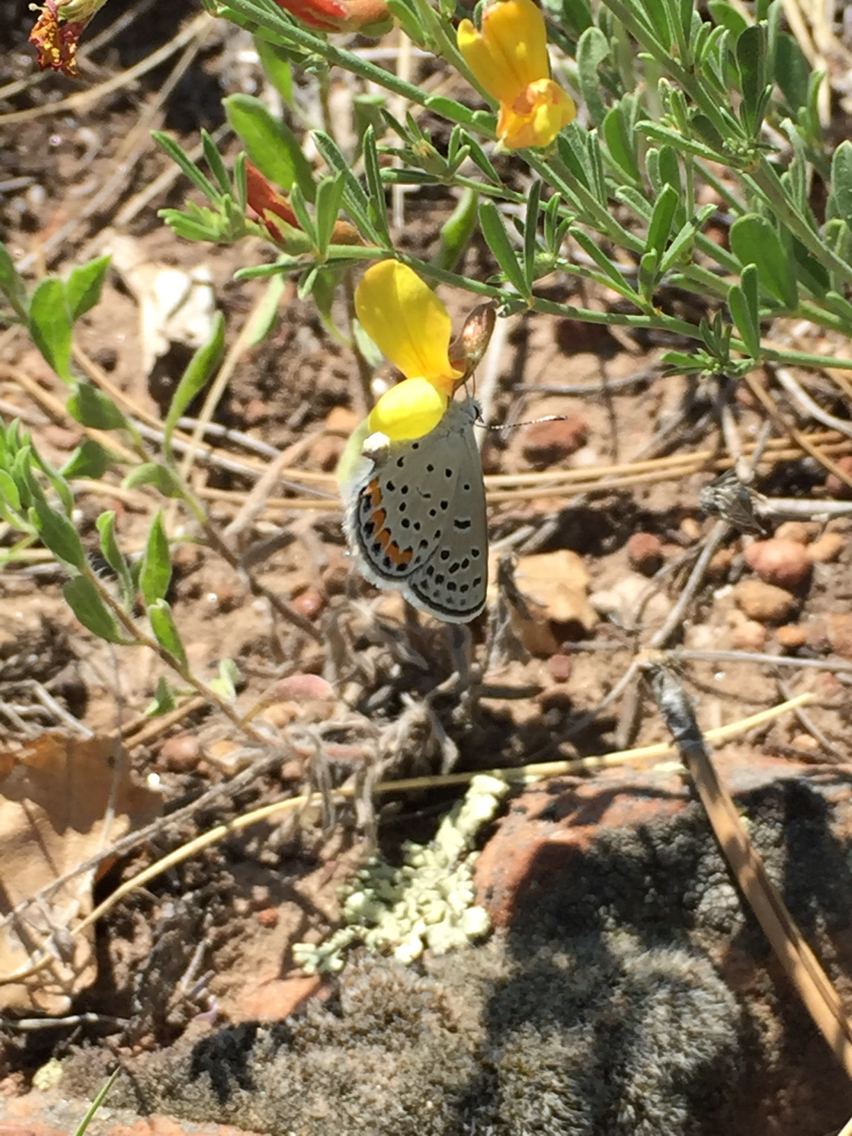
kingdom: Animalia
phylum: Arthropoda
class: Insecta
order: Lepidoptera
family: Lycaenidae
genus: Icaricia
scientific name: Icaricia lupini
